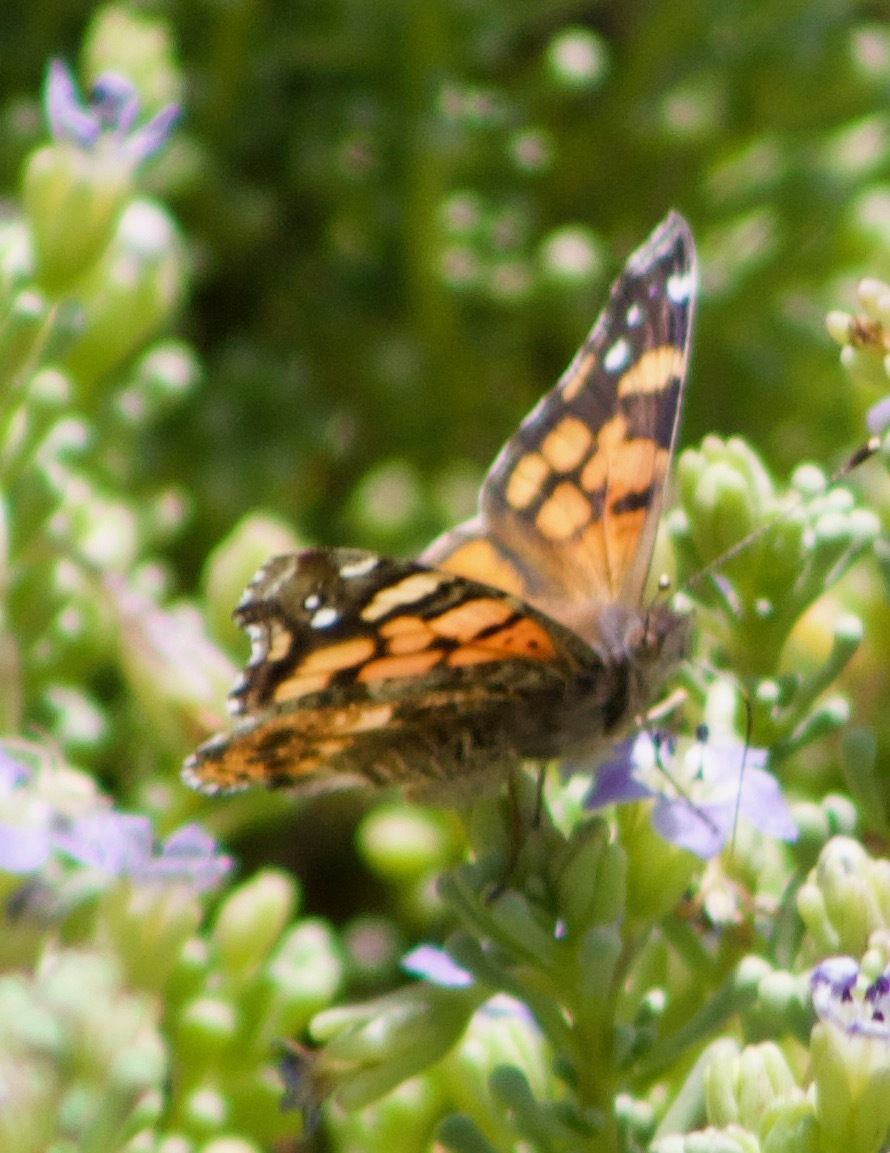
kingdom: Animalia
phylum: Arthropoda
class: Insecta
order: Lepidoptera
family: Nymphalidae
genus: Vanessa
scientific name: Vanessa carye
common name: Subtropical lady
